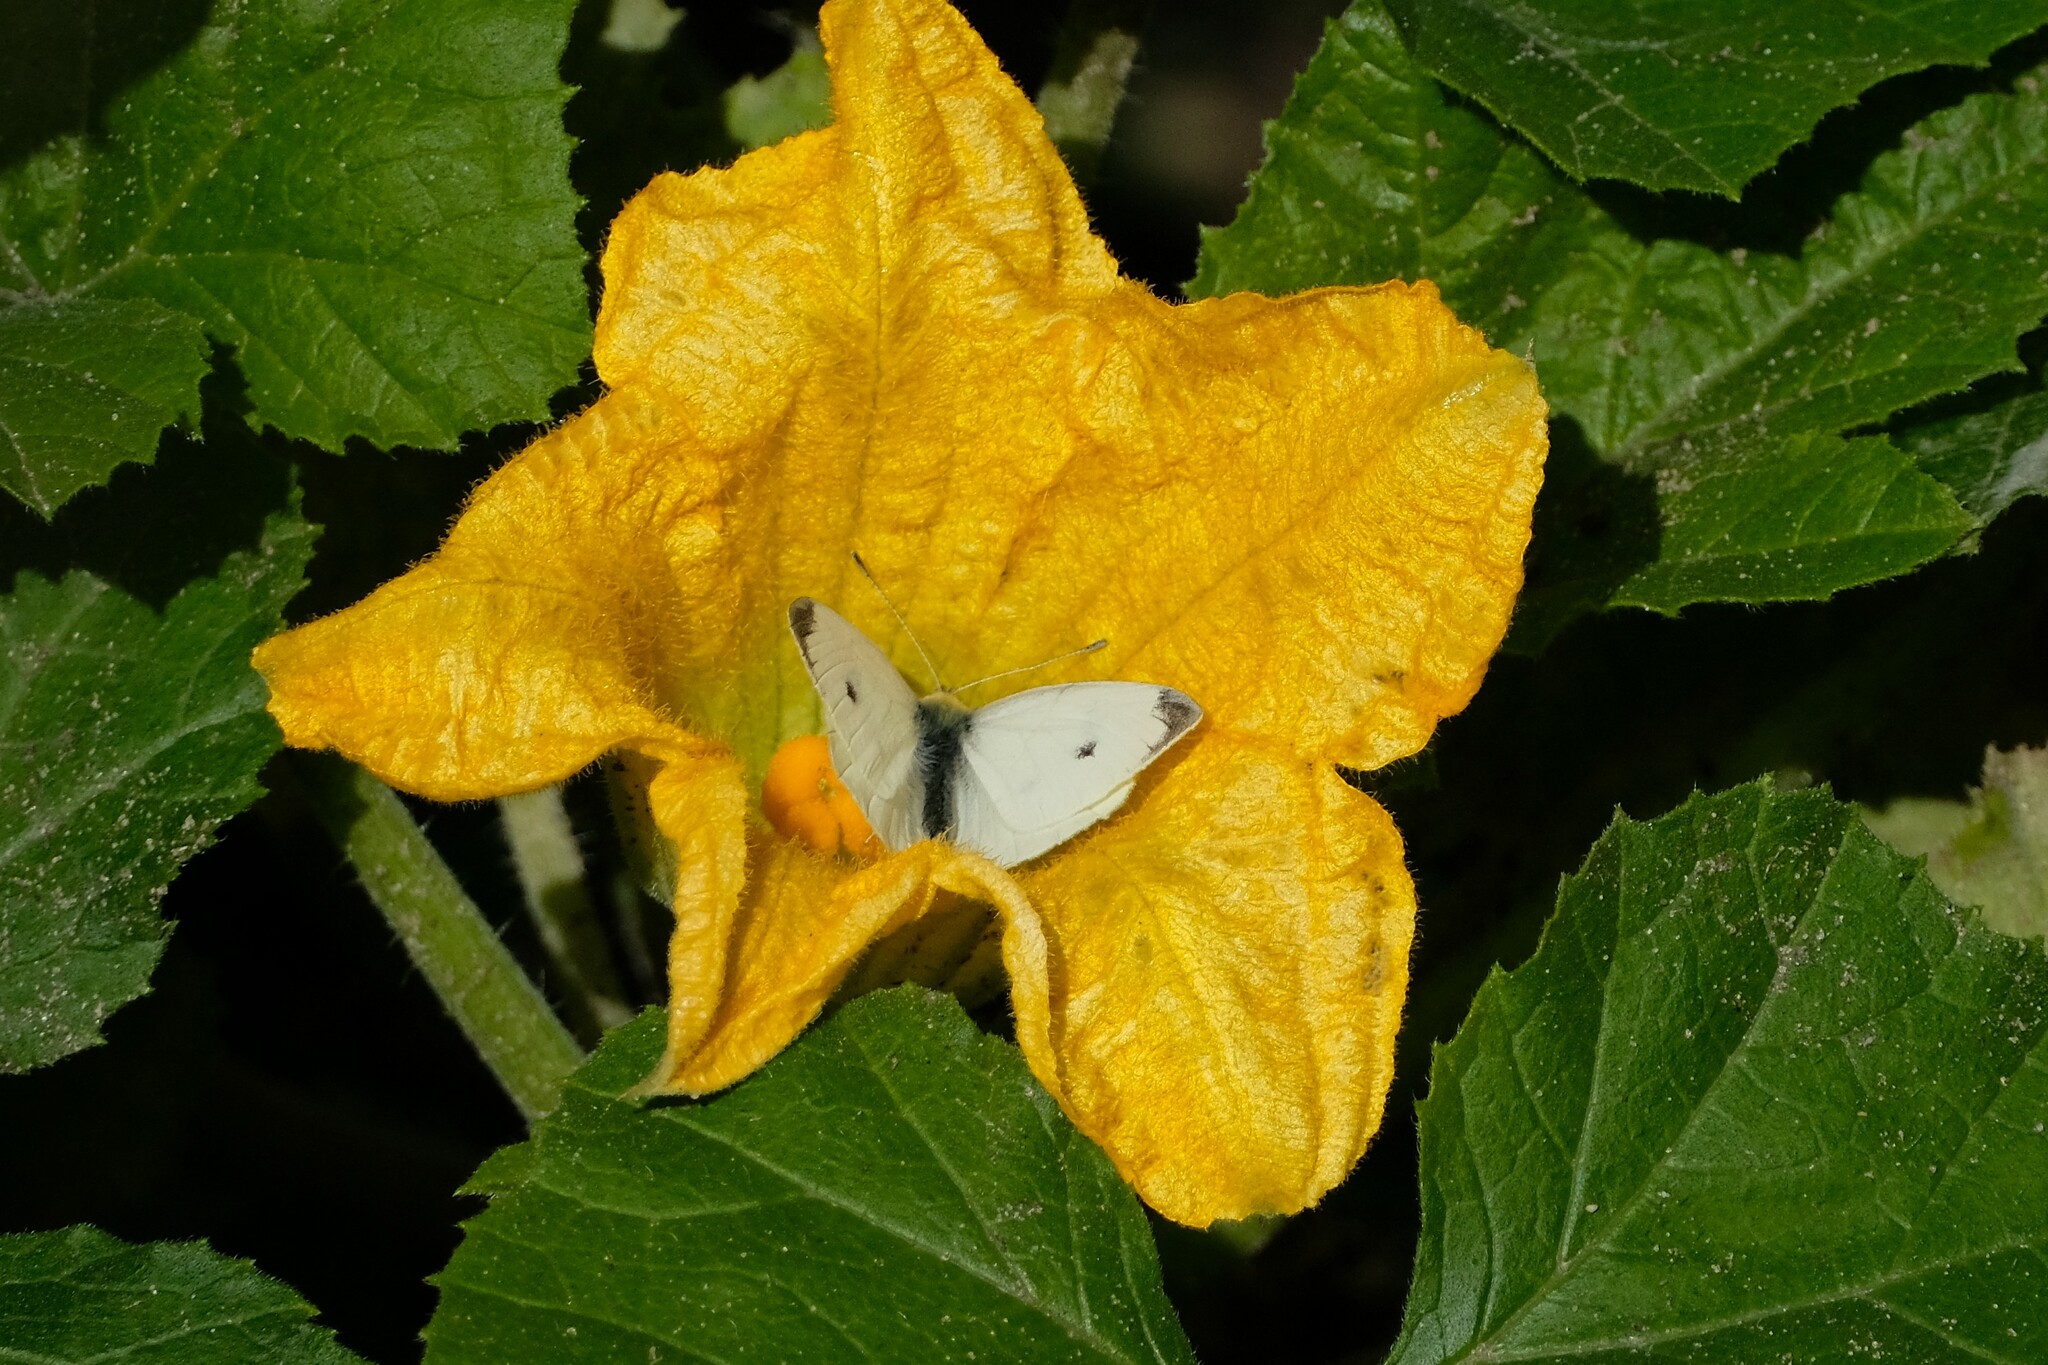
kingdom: Animalia
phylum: Arthropoda
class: Insecta
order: Lepidoptera
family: Pieridae
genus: Pieris
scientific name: Pieris rapae
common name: Small white
